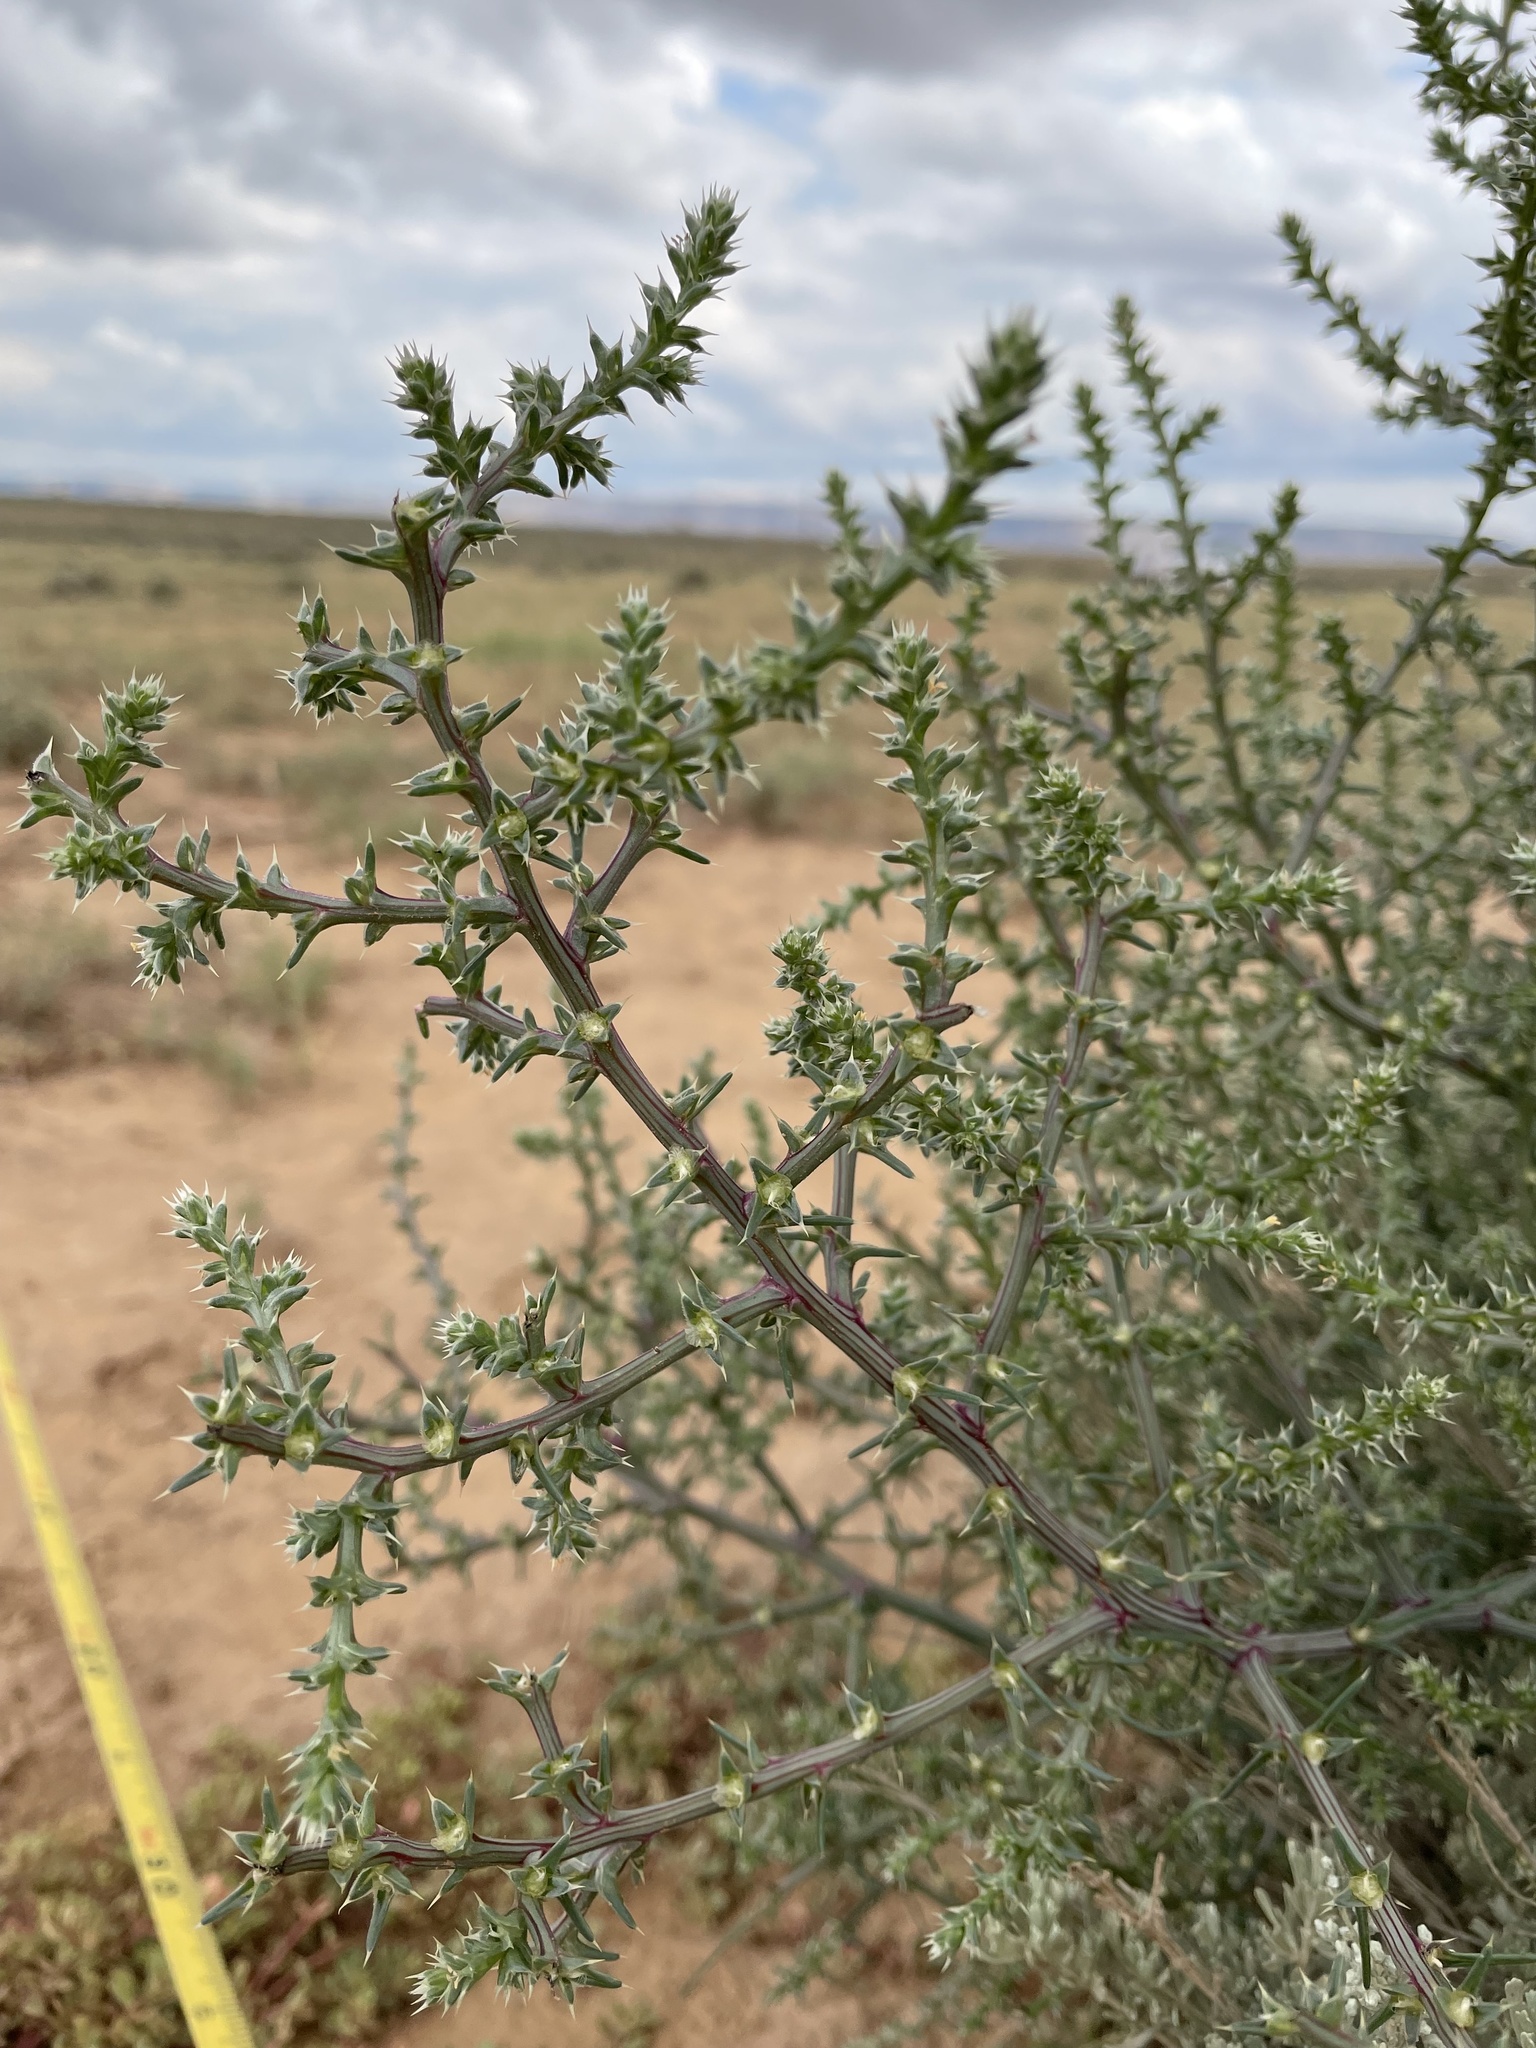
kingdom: Plantae
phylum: Tracheophyta
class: Magnoliopsida
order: Caryophyllales
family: Amaranthaceae
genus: Salsola
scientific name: Salsola tragus
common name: Prickly russian thistle
